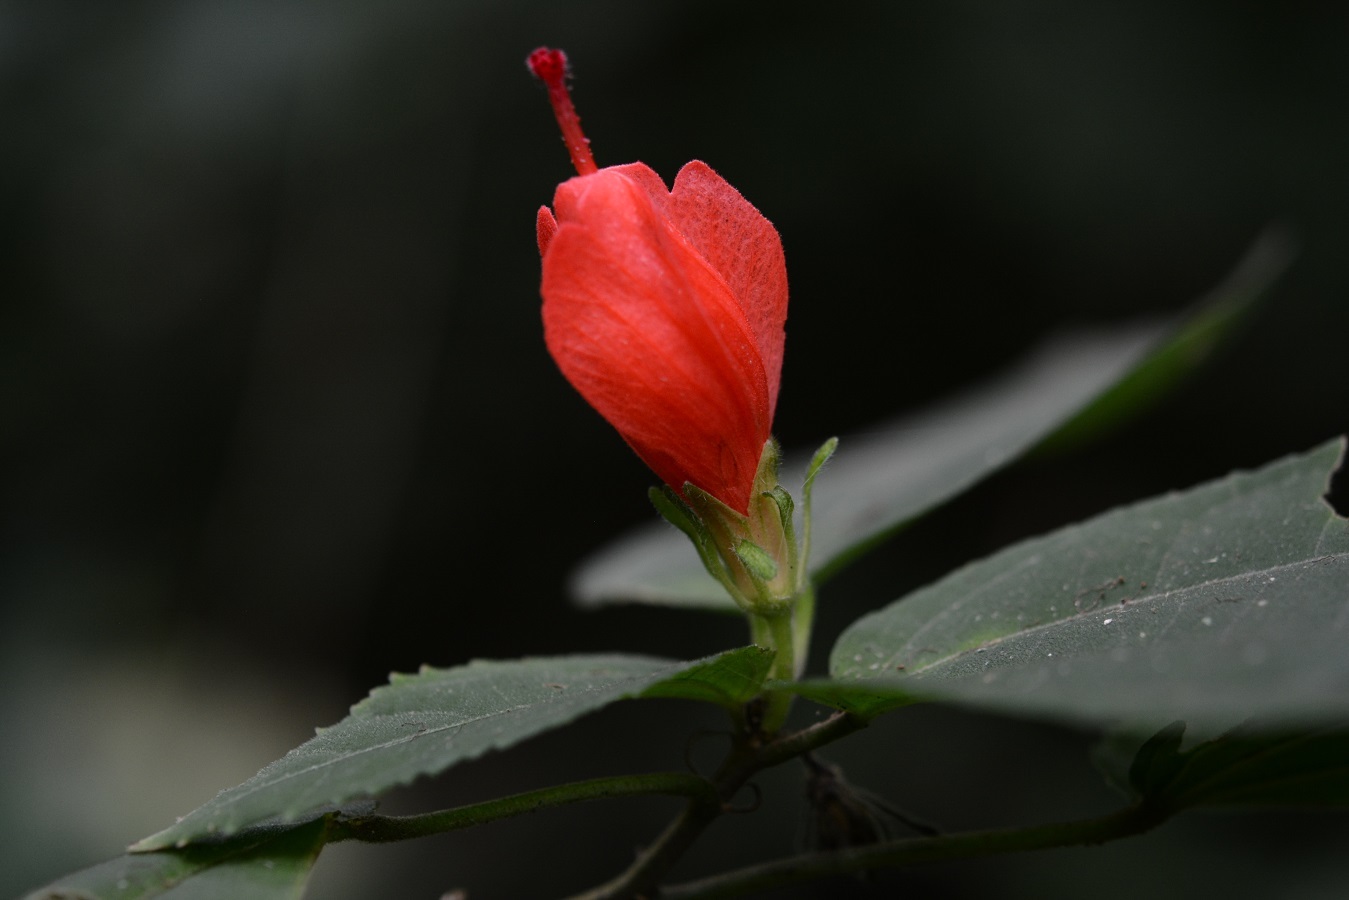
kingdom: Plantae
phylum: Tracheophyta
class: Magnoliopsida
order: Malvales
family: Malvaceae
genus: Malvaviscus
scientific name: Malvaviscus arboreus
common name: Wax mallow
